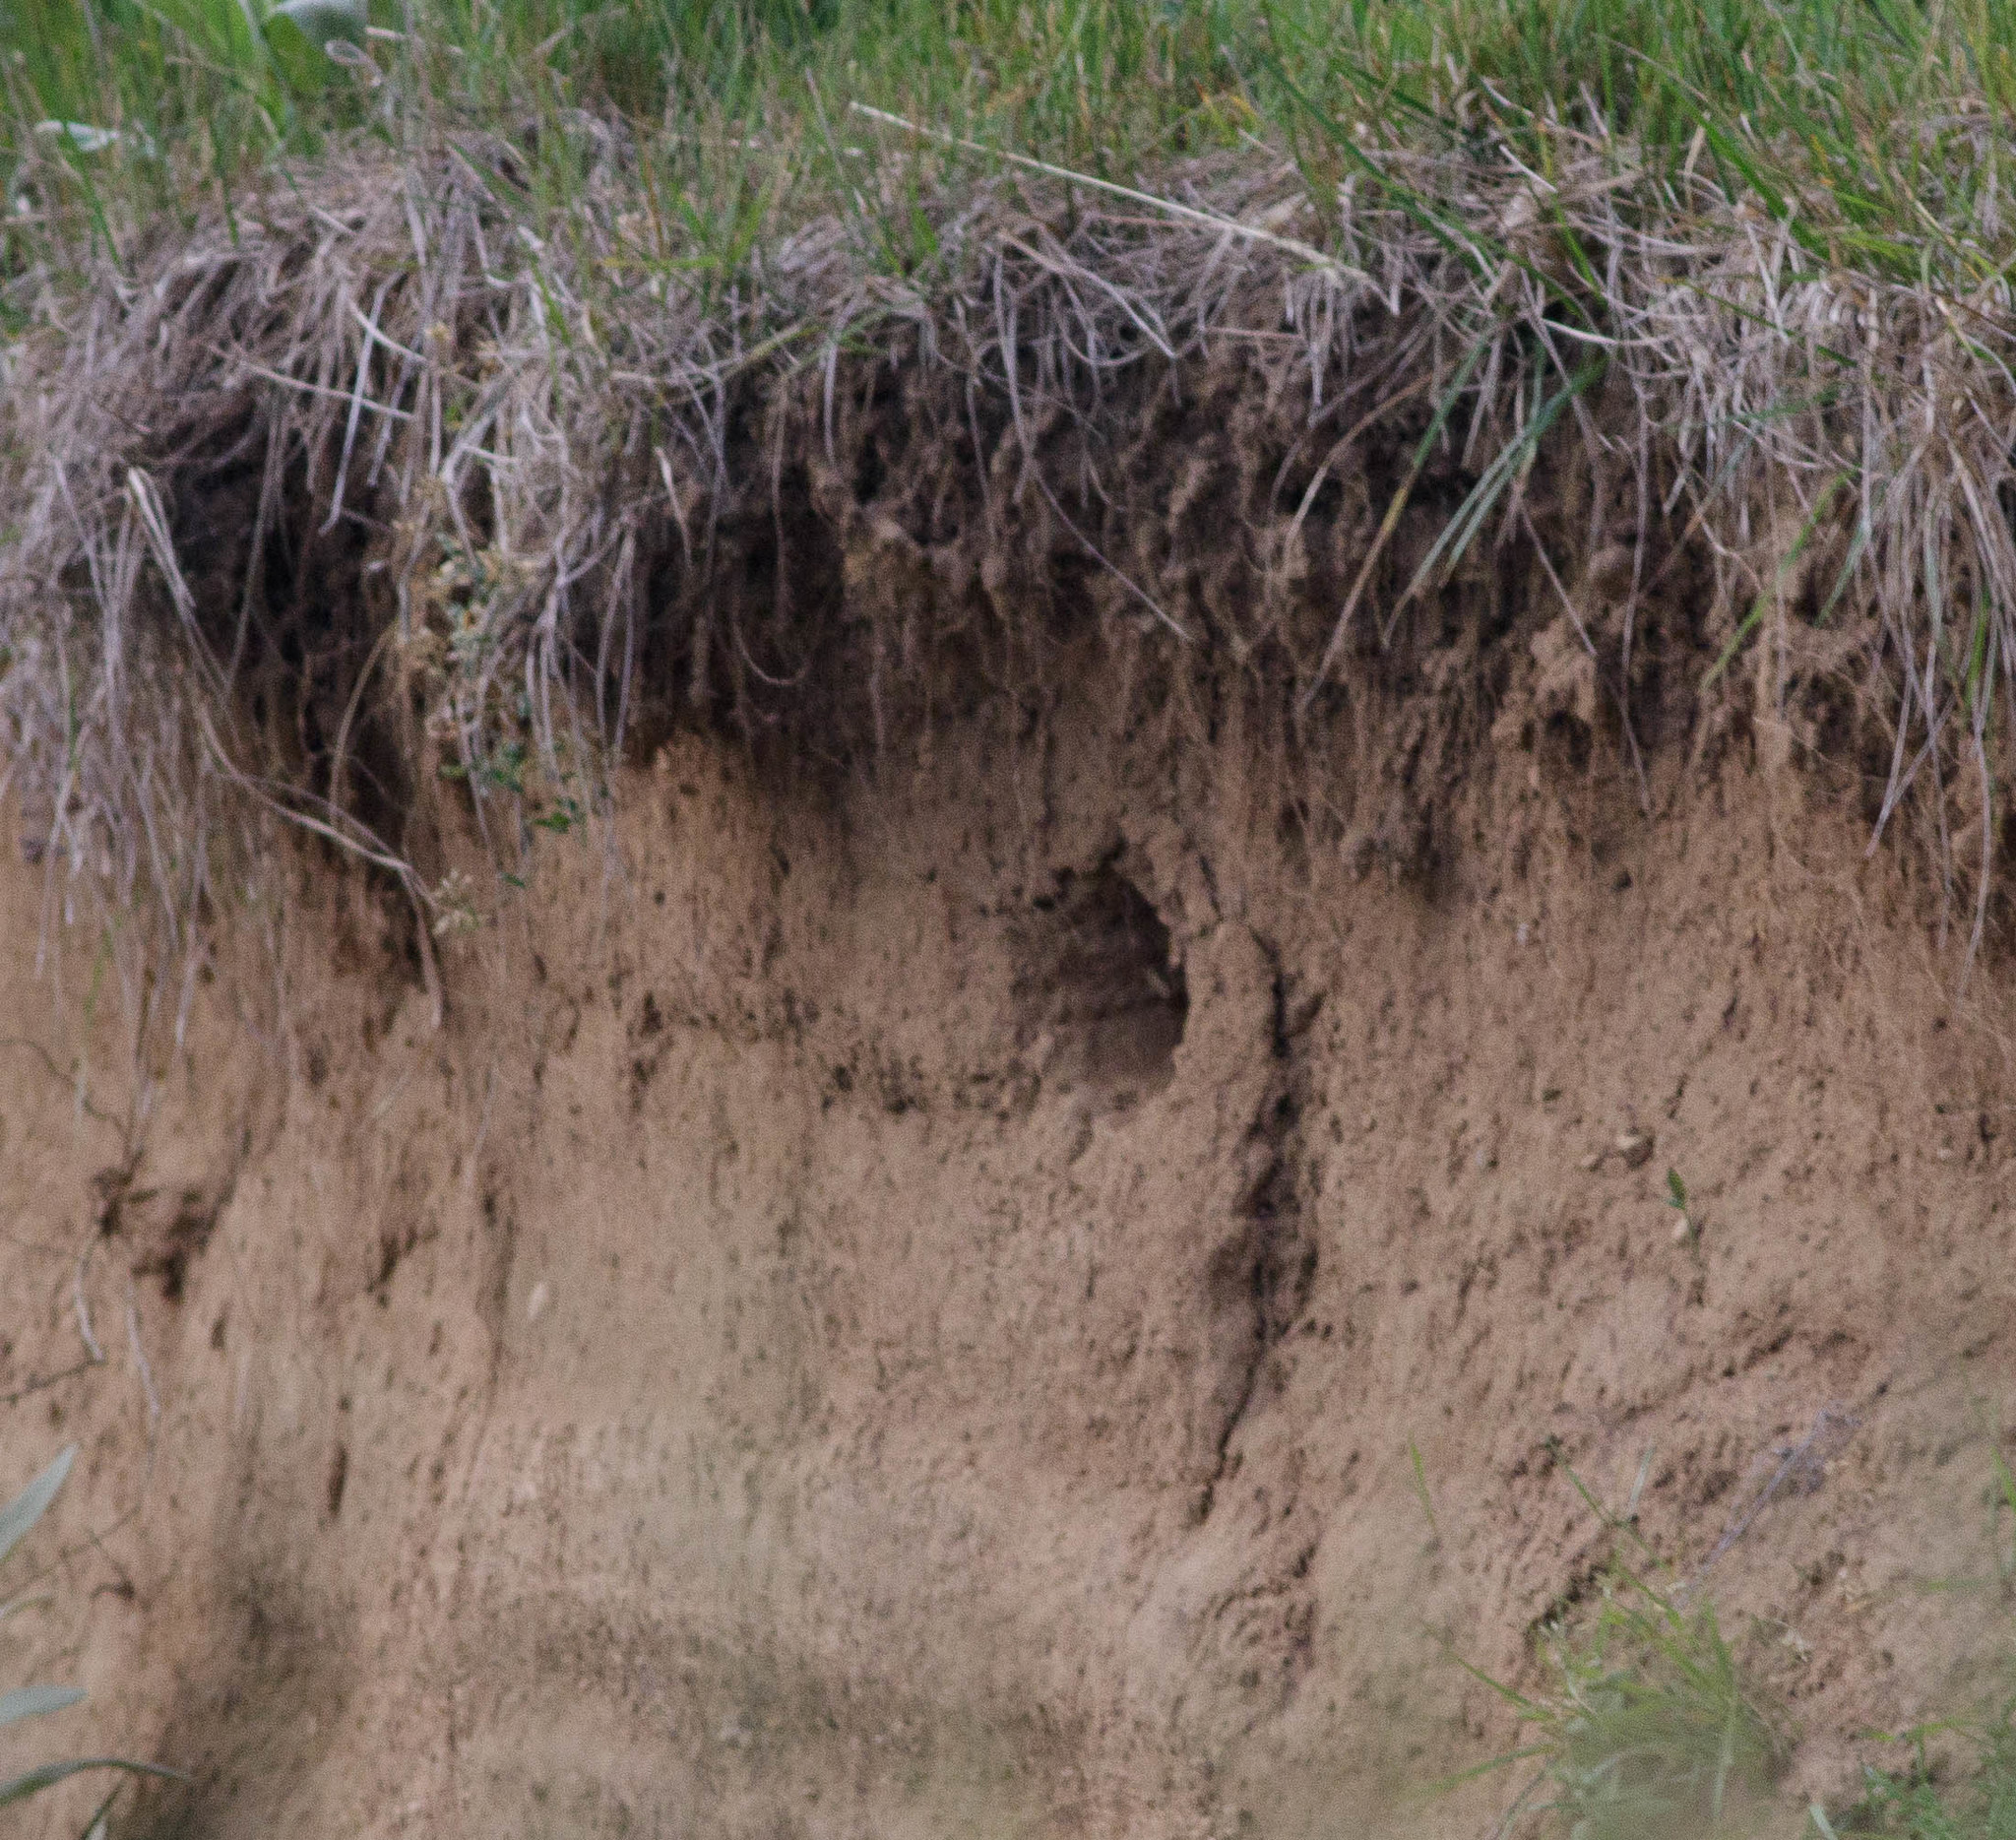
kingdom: Animalia
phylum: Chordata
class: Aves
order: Coraciiformes
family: Alcedinidae
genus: Megaceryle
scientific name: Megaceryle alcyon
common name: Belted kingfisher
